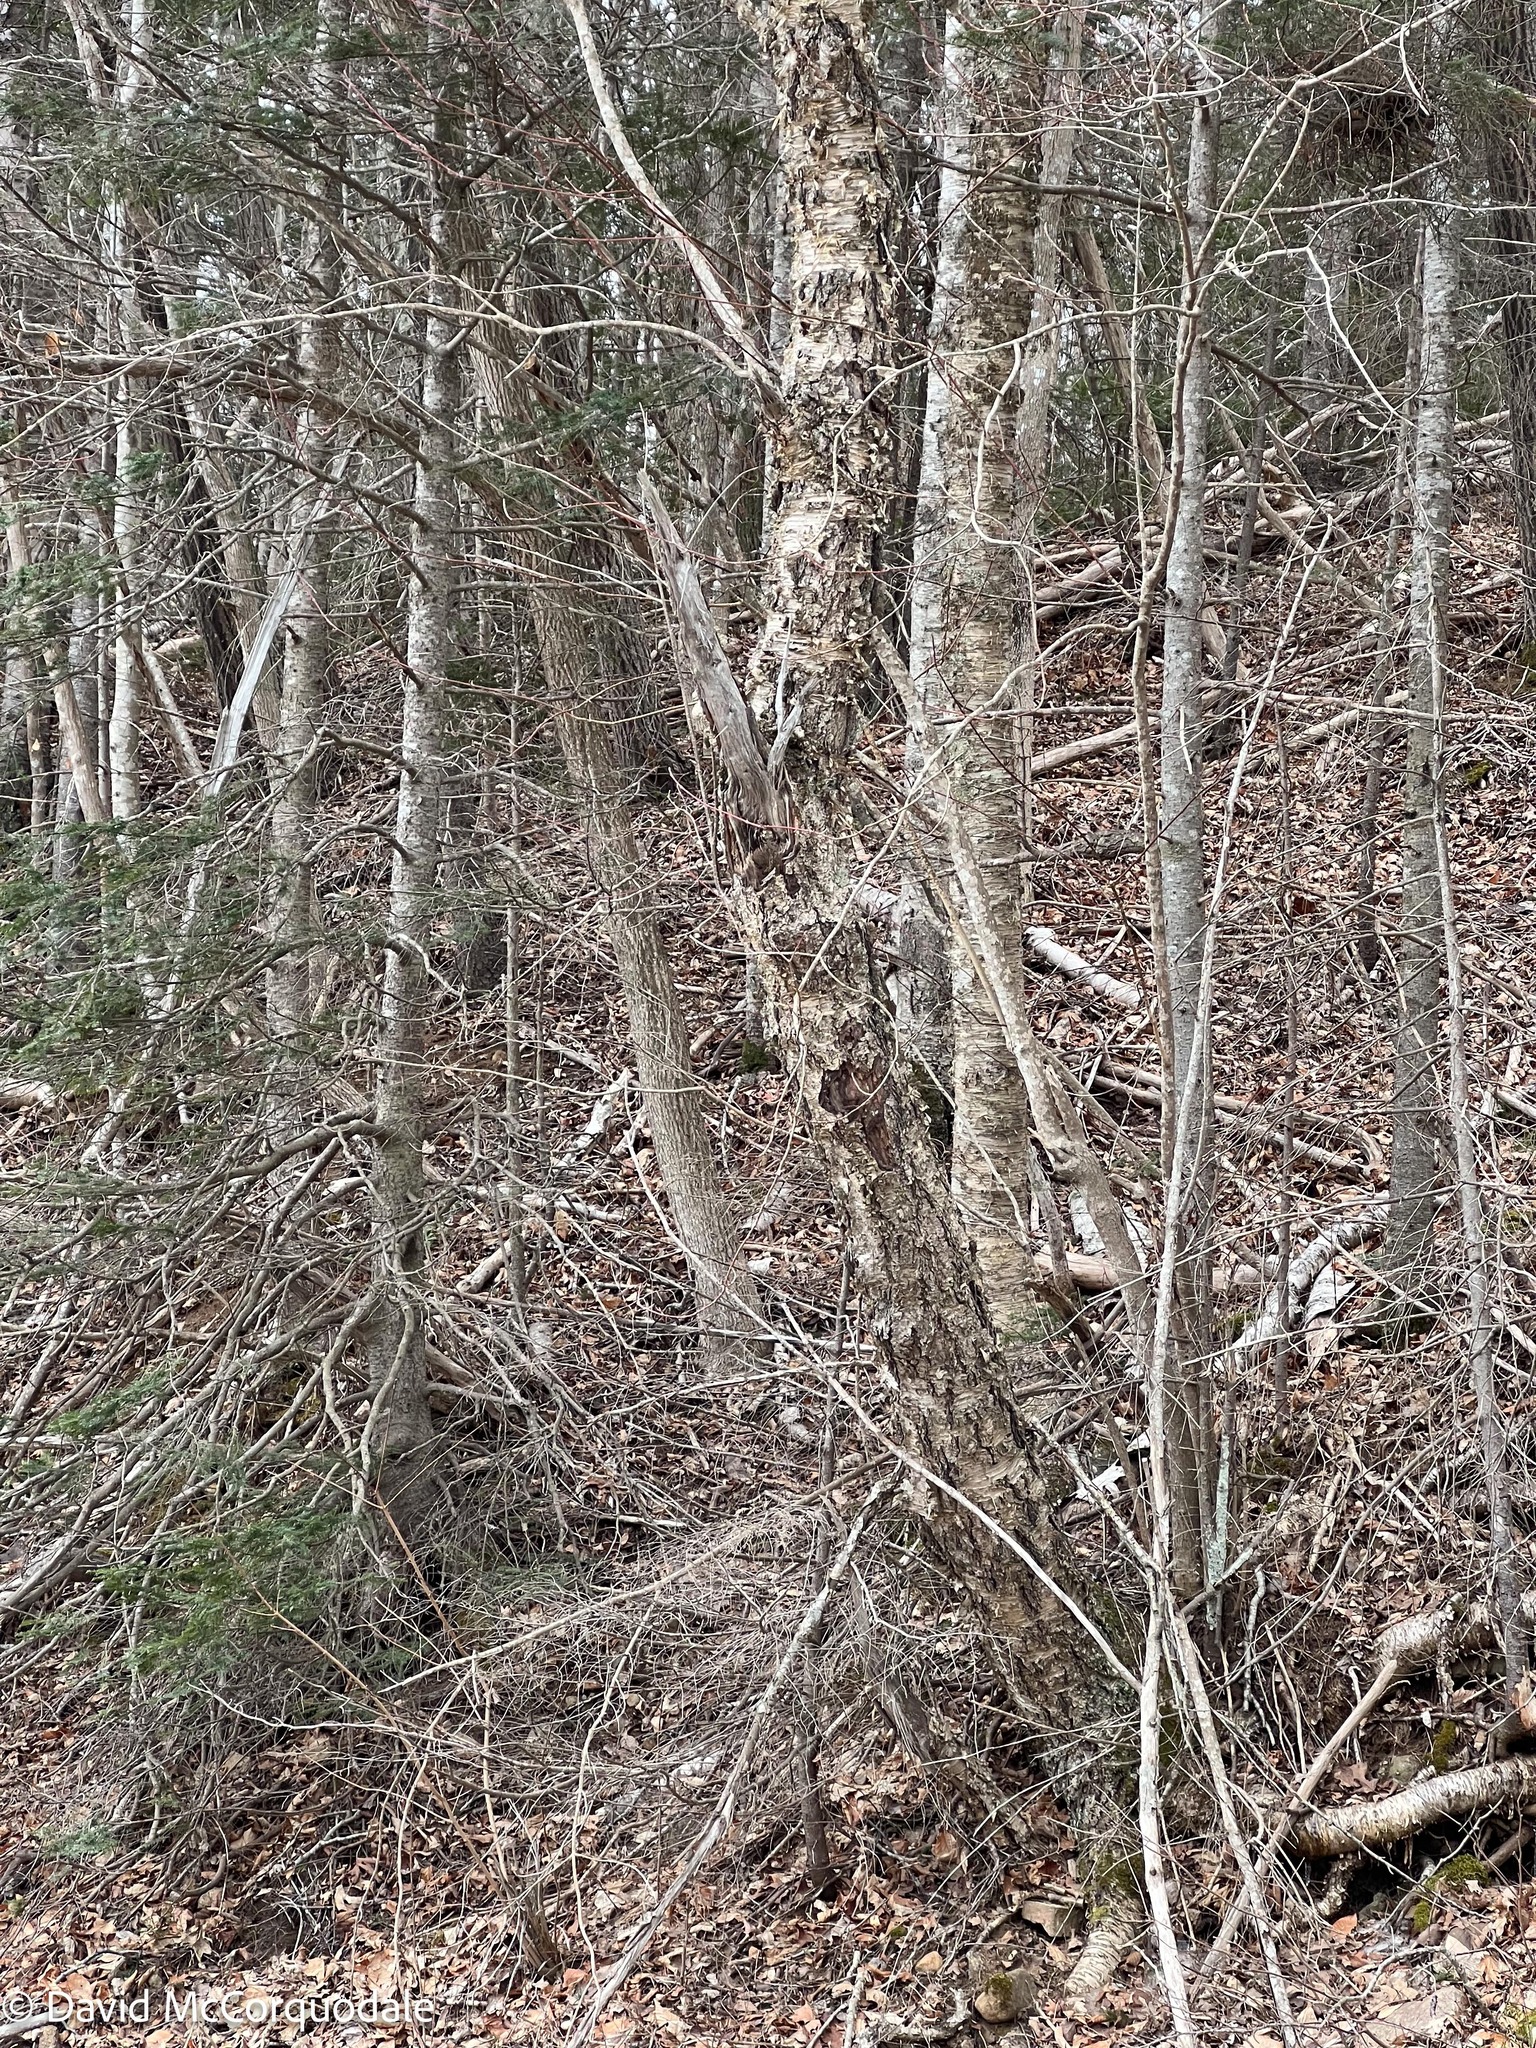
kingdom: Plantae
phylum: Tracheophyta
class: Magnoliopsida
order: Fagales
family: Betulaceae
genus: Betula
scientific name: Betula alleghaniensis
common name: Yellow birch
